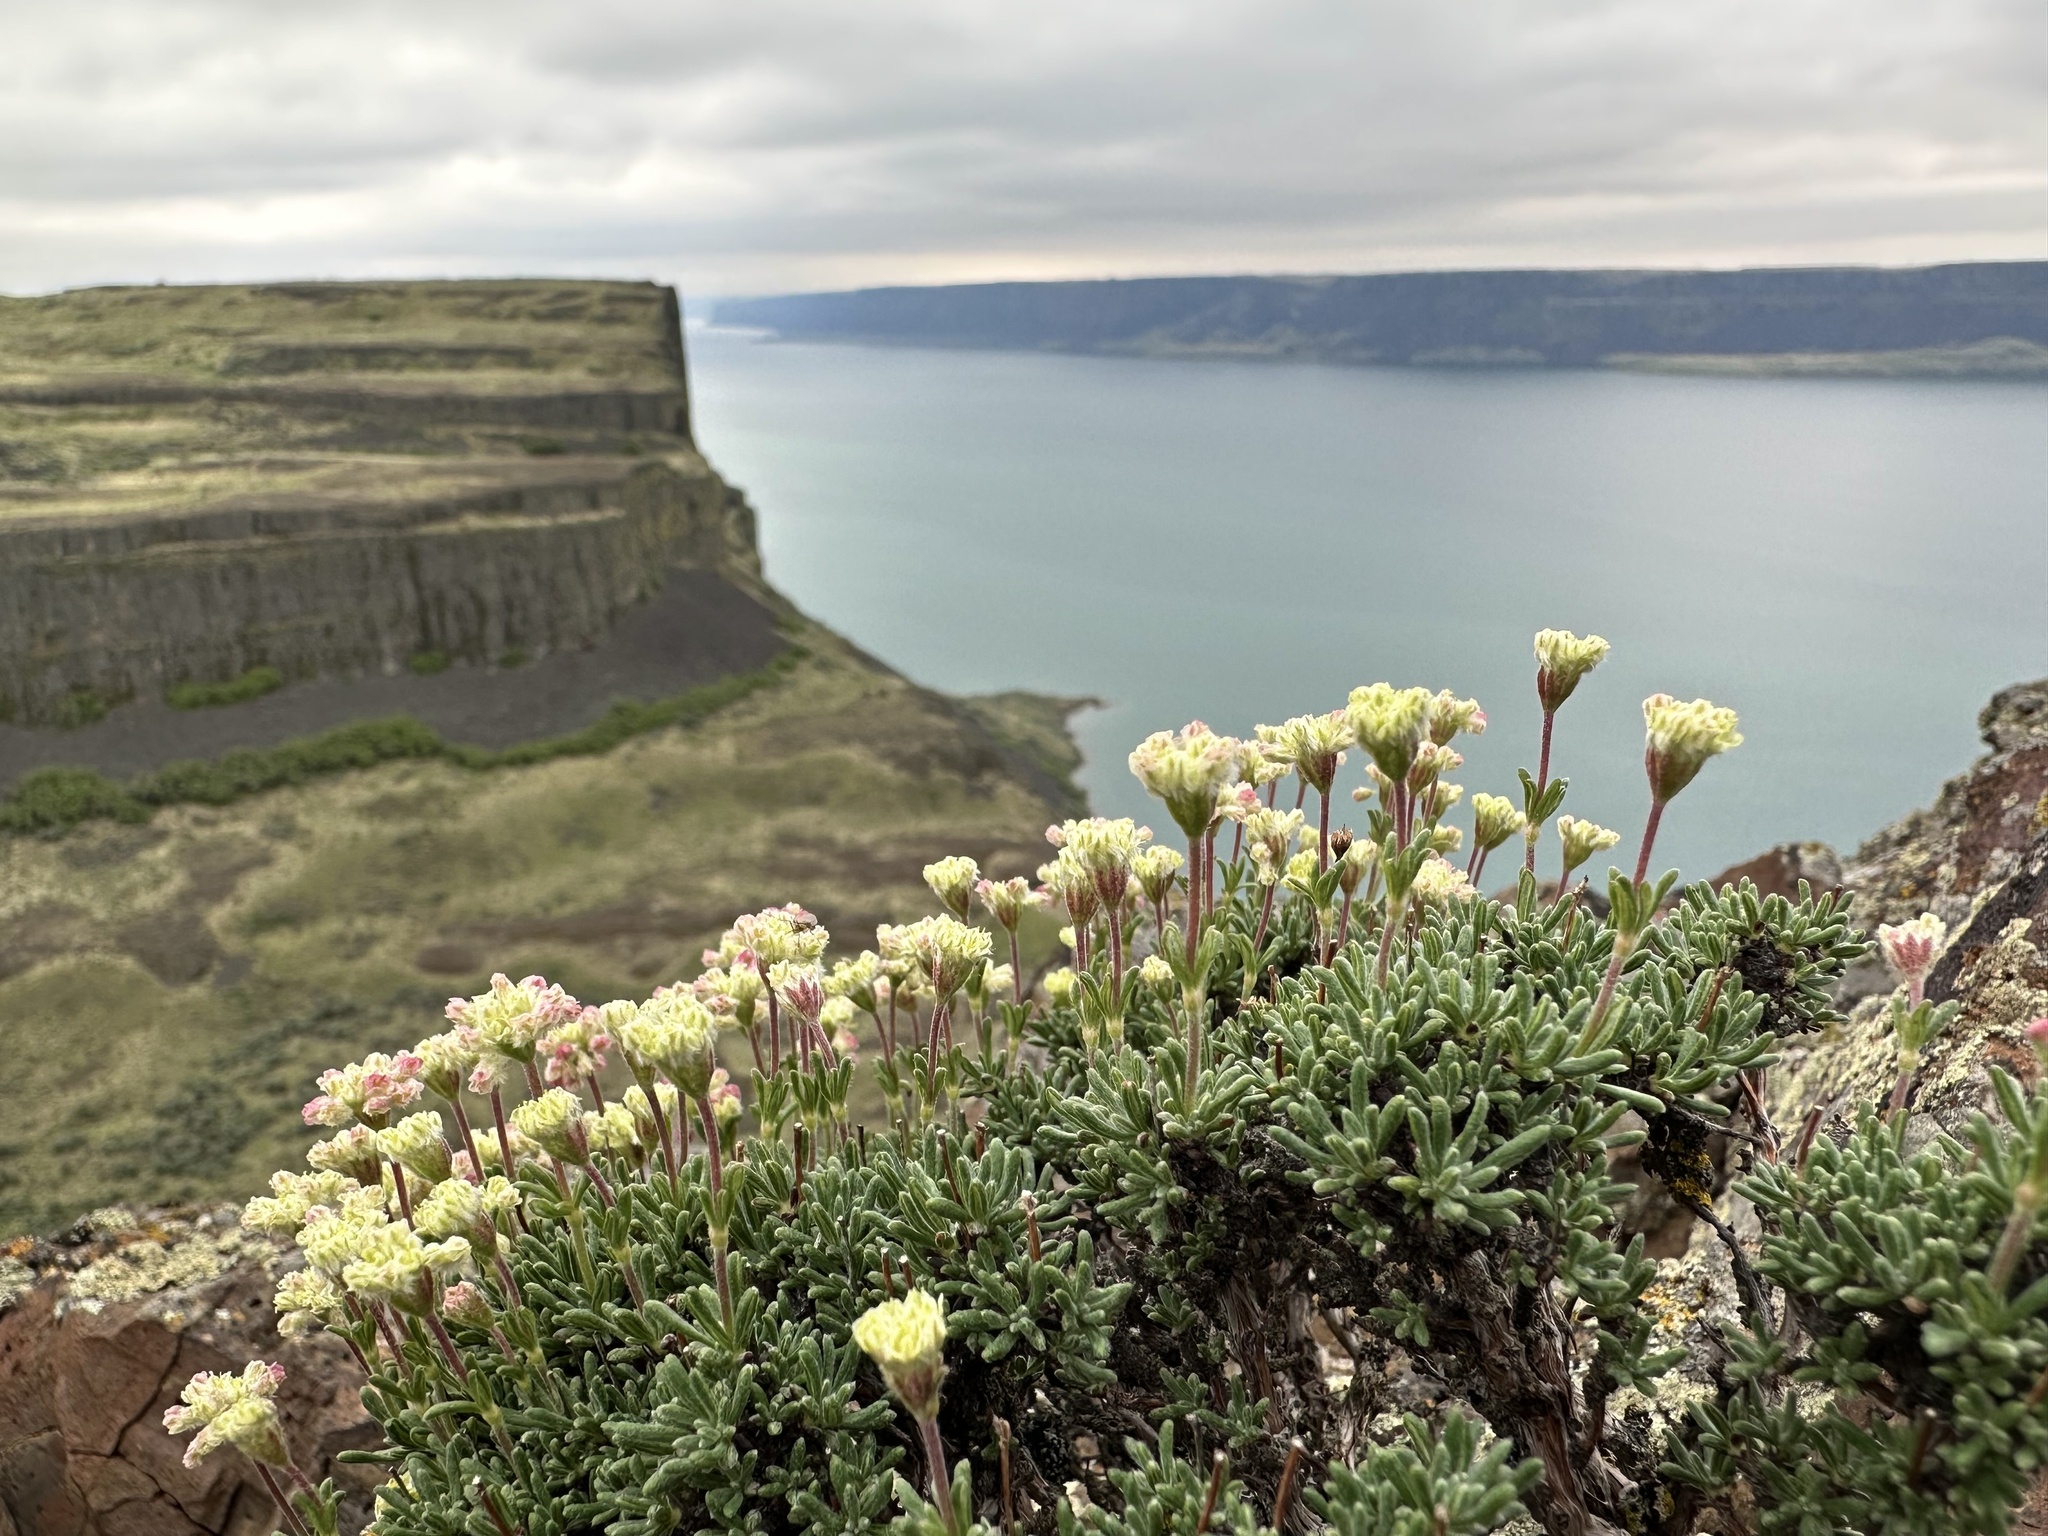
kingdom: Plantae
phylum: Tracheophyta
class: Magnoliopsida
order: Caryophyllales
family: Polygonaceae
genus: Eriogonum
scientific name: Eriogonum thymoides
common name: Thyme-leaf wild buckwheat
